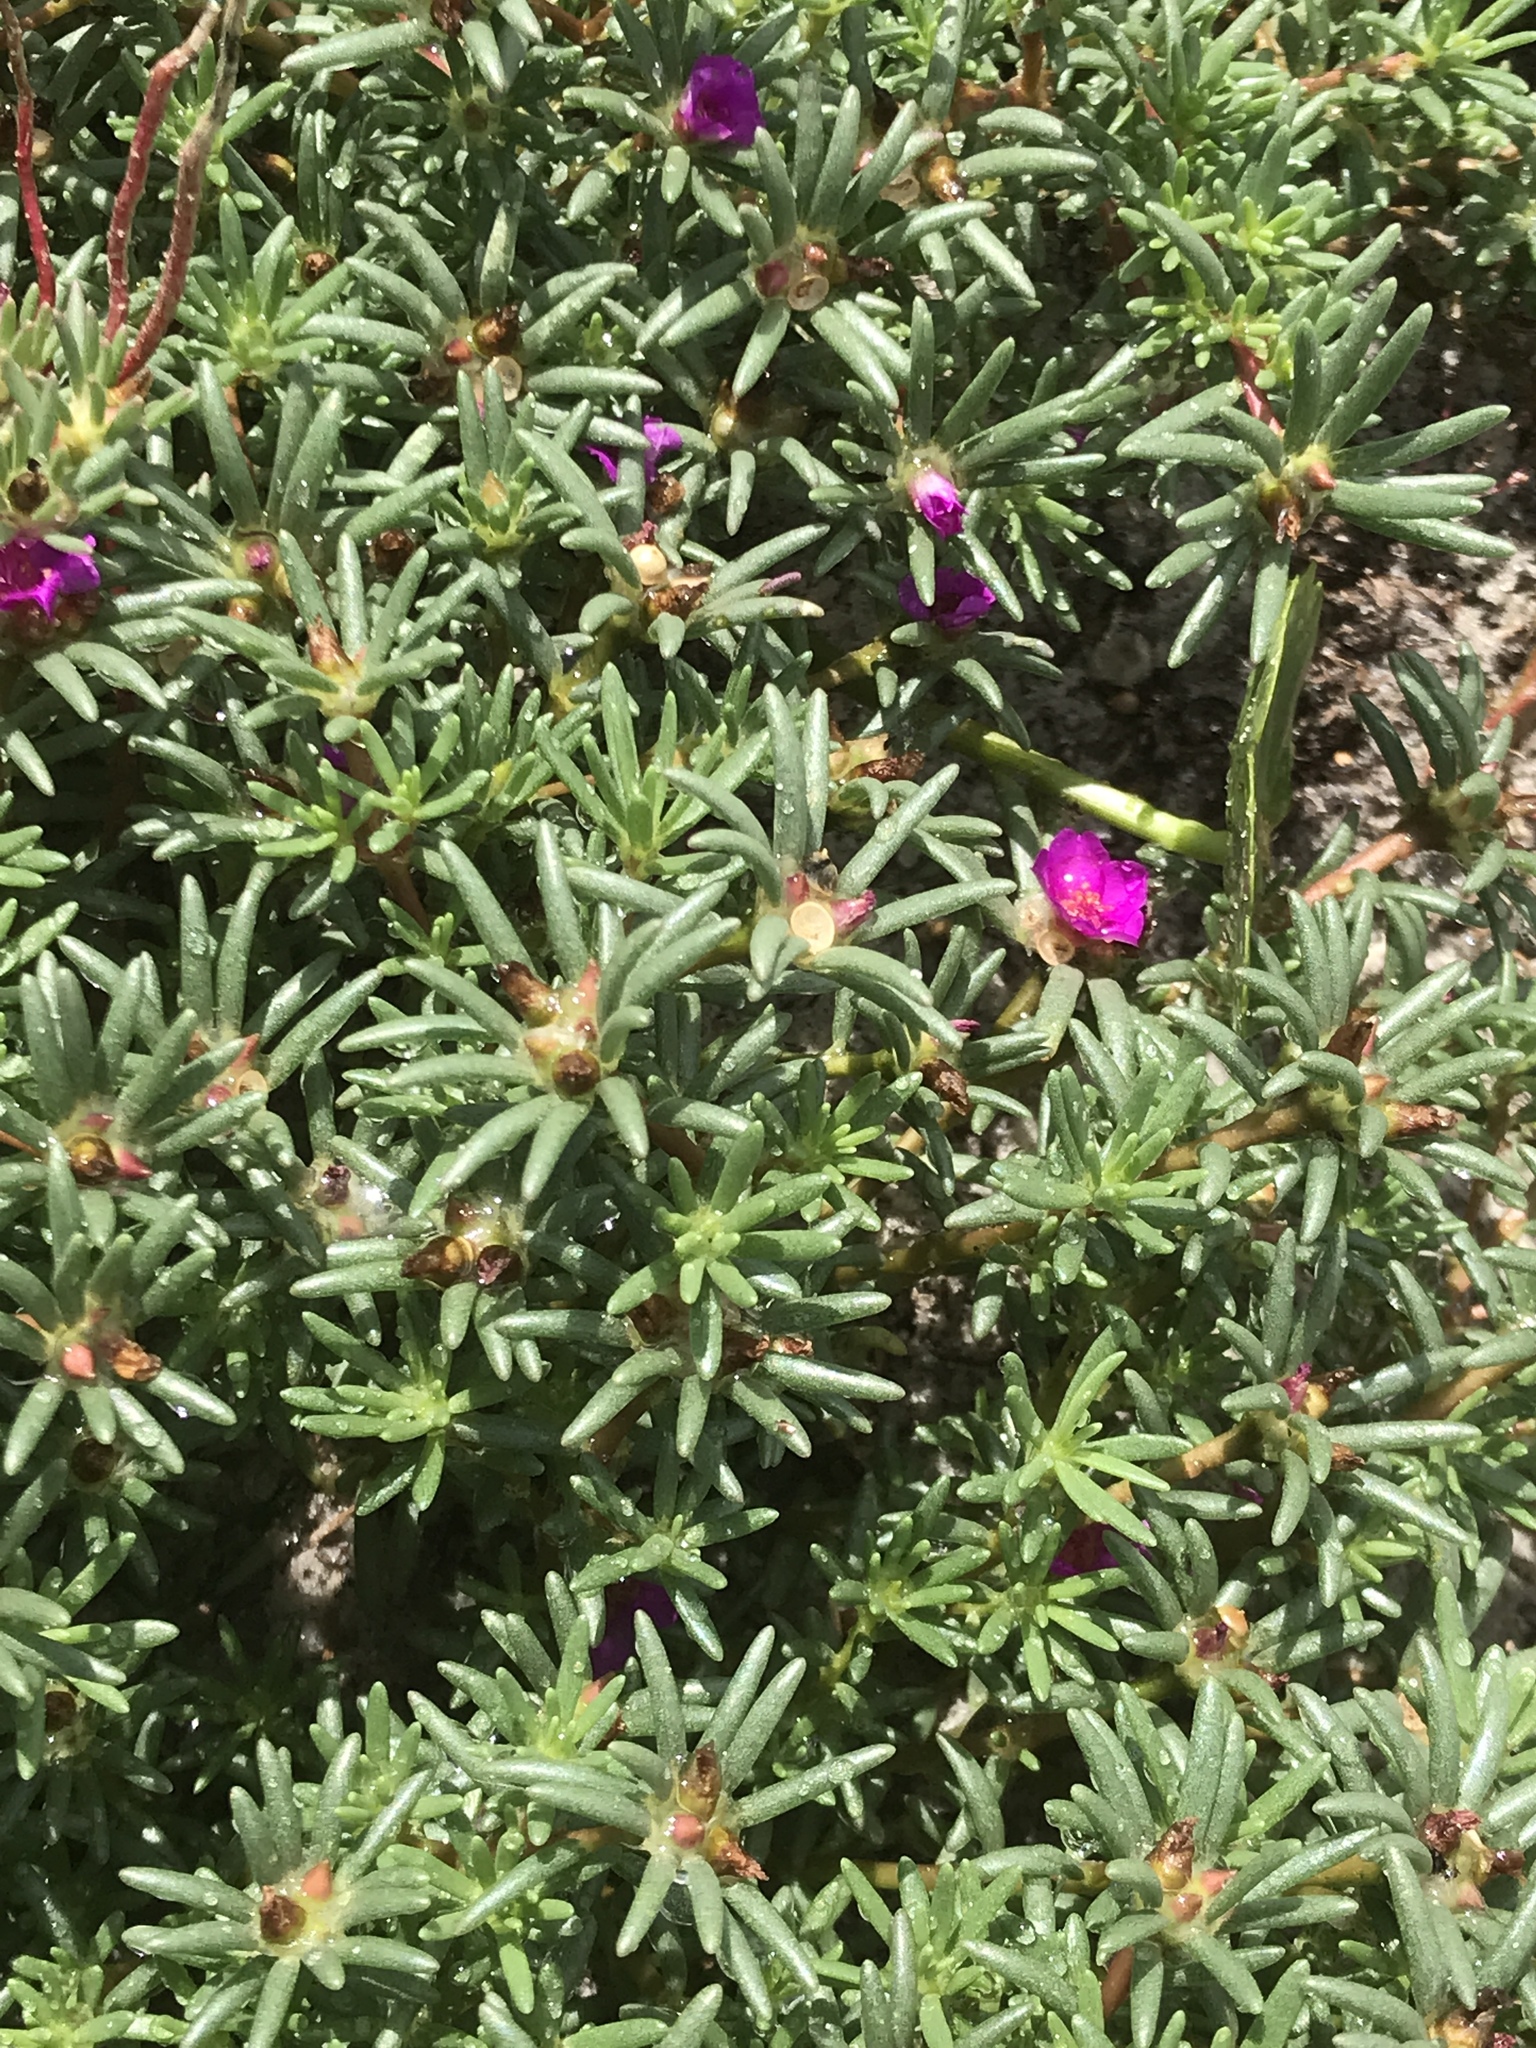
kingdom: Plantae
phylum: Tracheophyta
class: Magnoliopsida
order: Caryophyllales
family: Portulacaceae
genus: Portulaca
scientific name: Portulaca pilosa
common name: Kiss me quick
